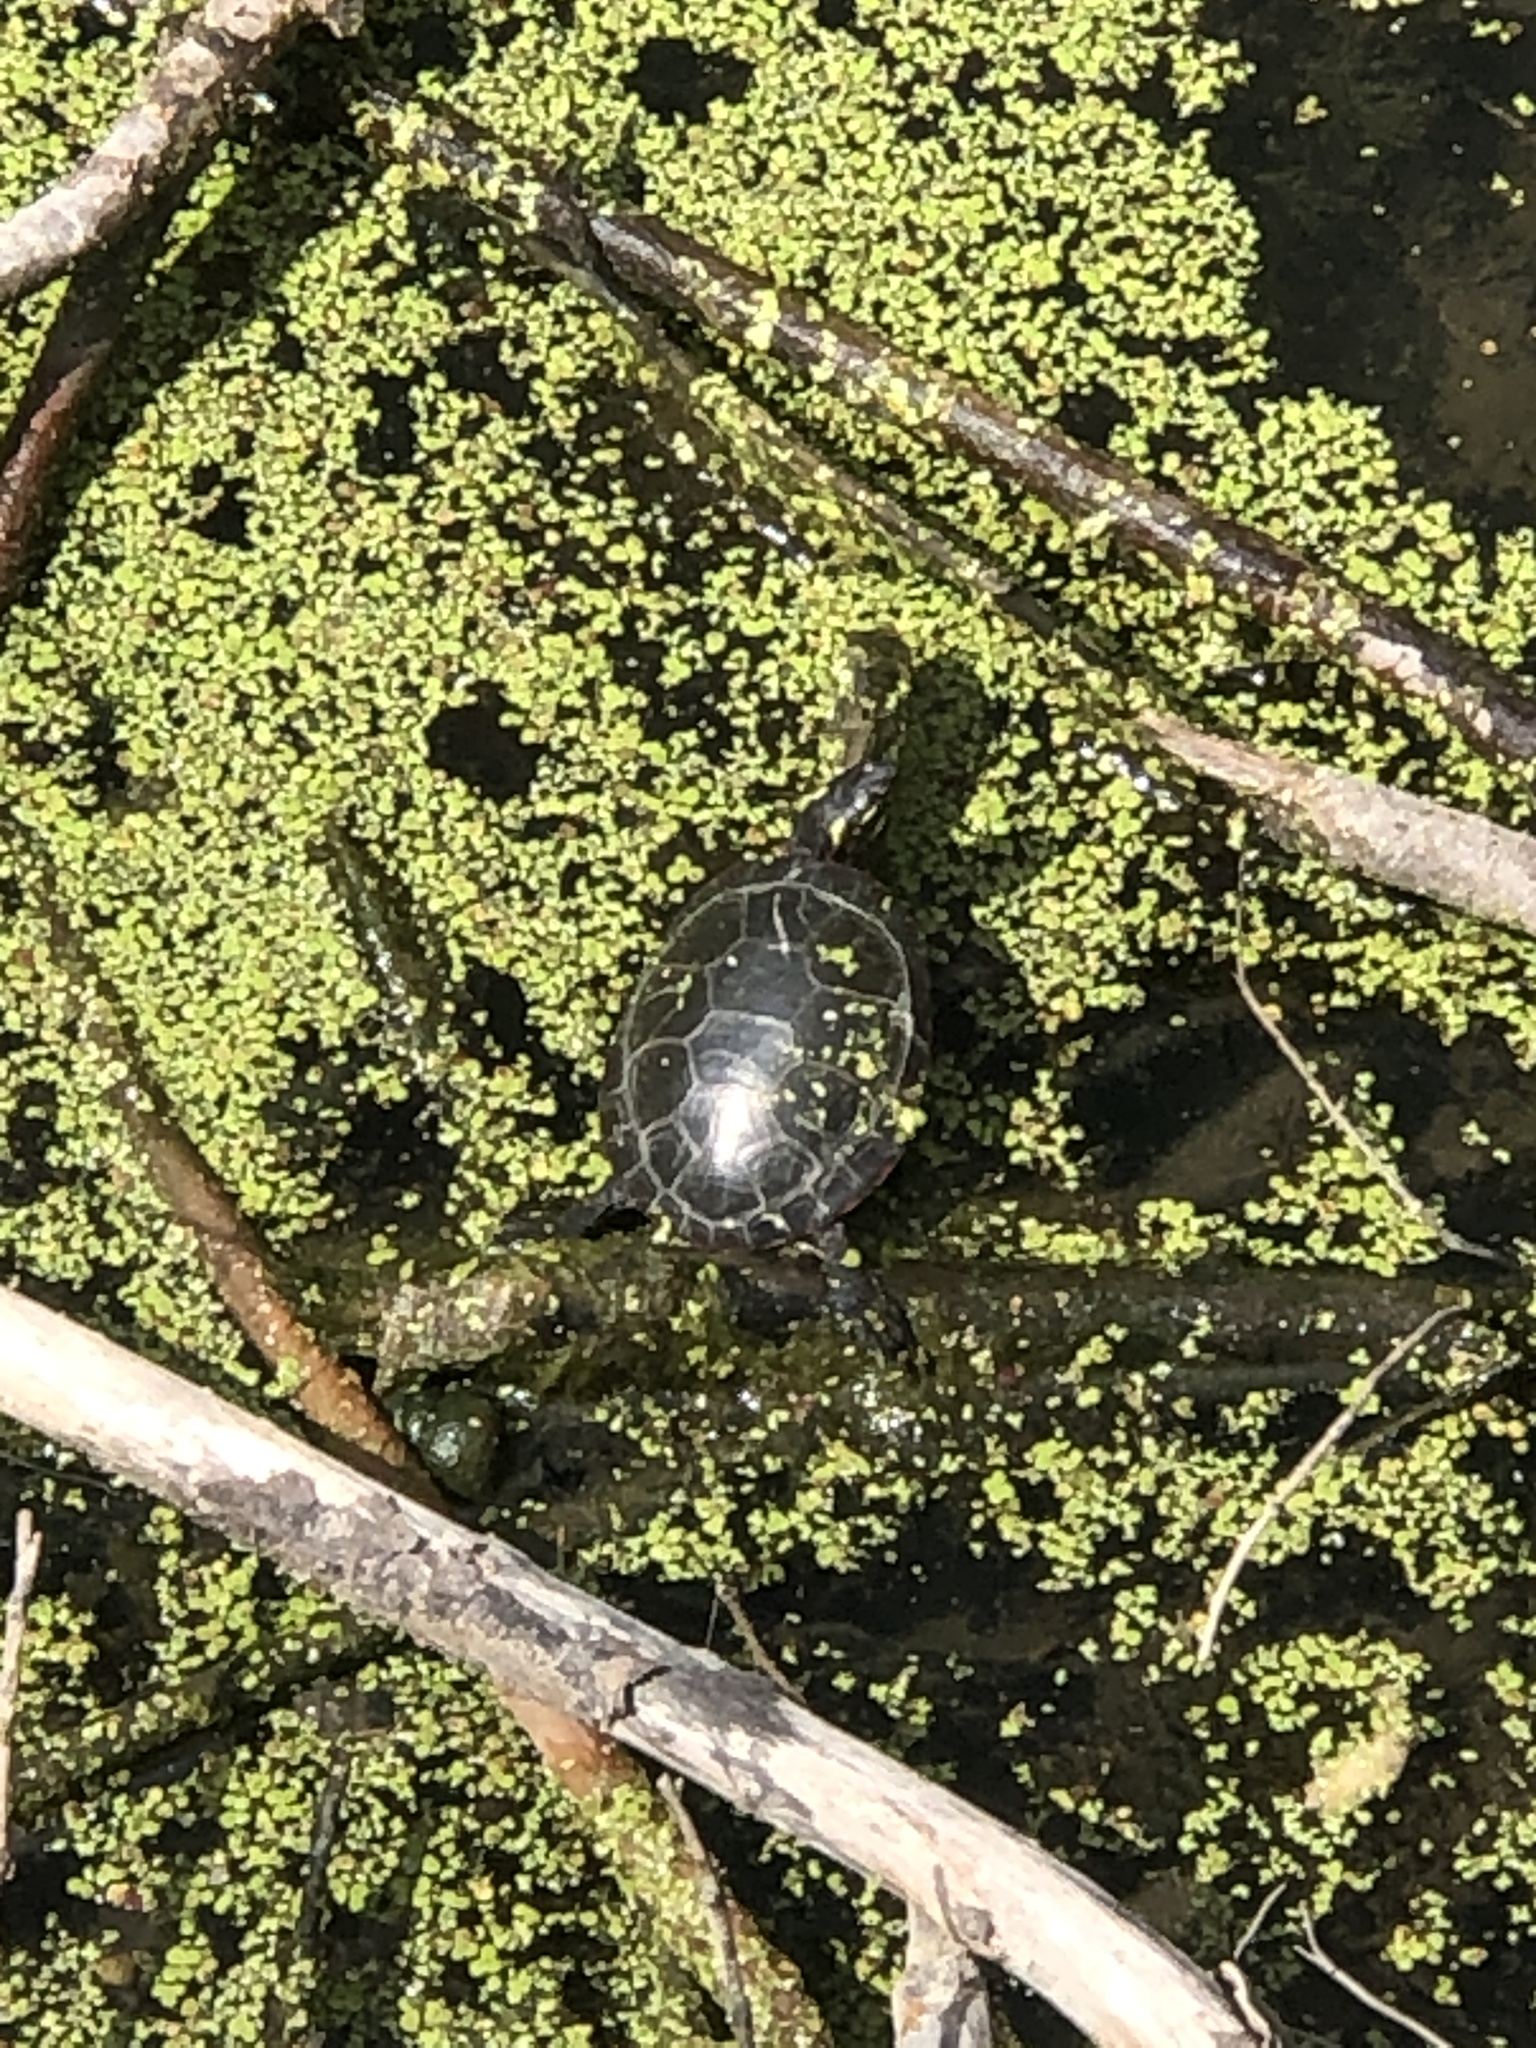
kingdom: Animalia
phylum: Chordata
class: Testudines
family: Emydidae
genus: Chrysemys
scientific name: Chrysemys picta
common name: Painted turtle
